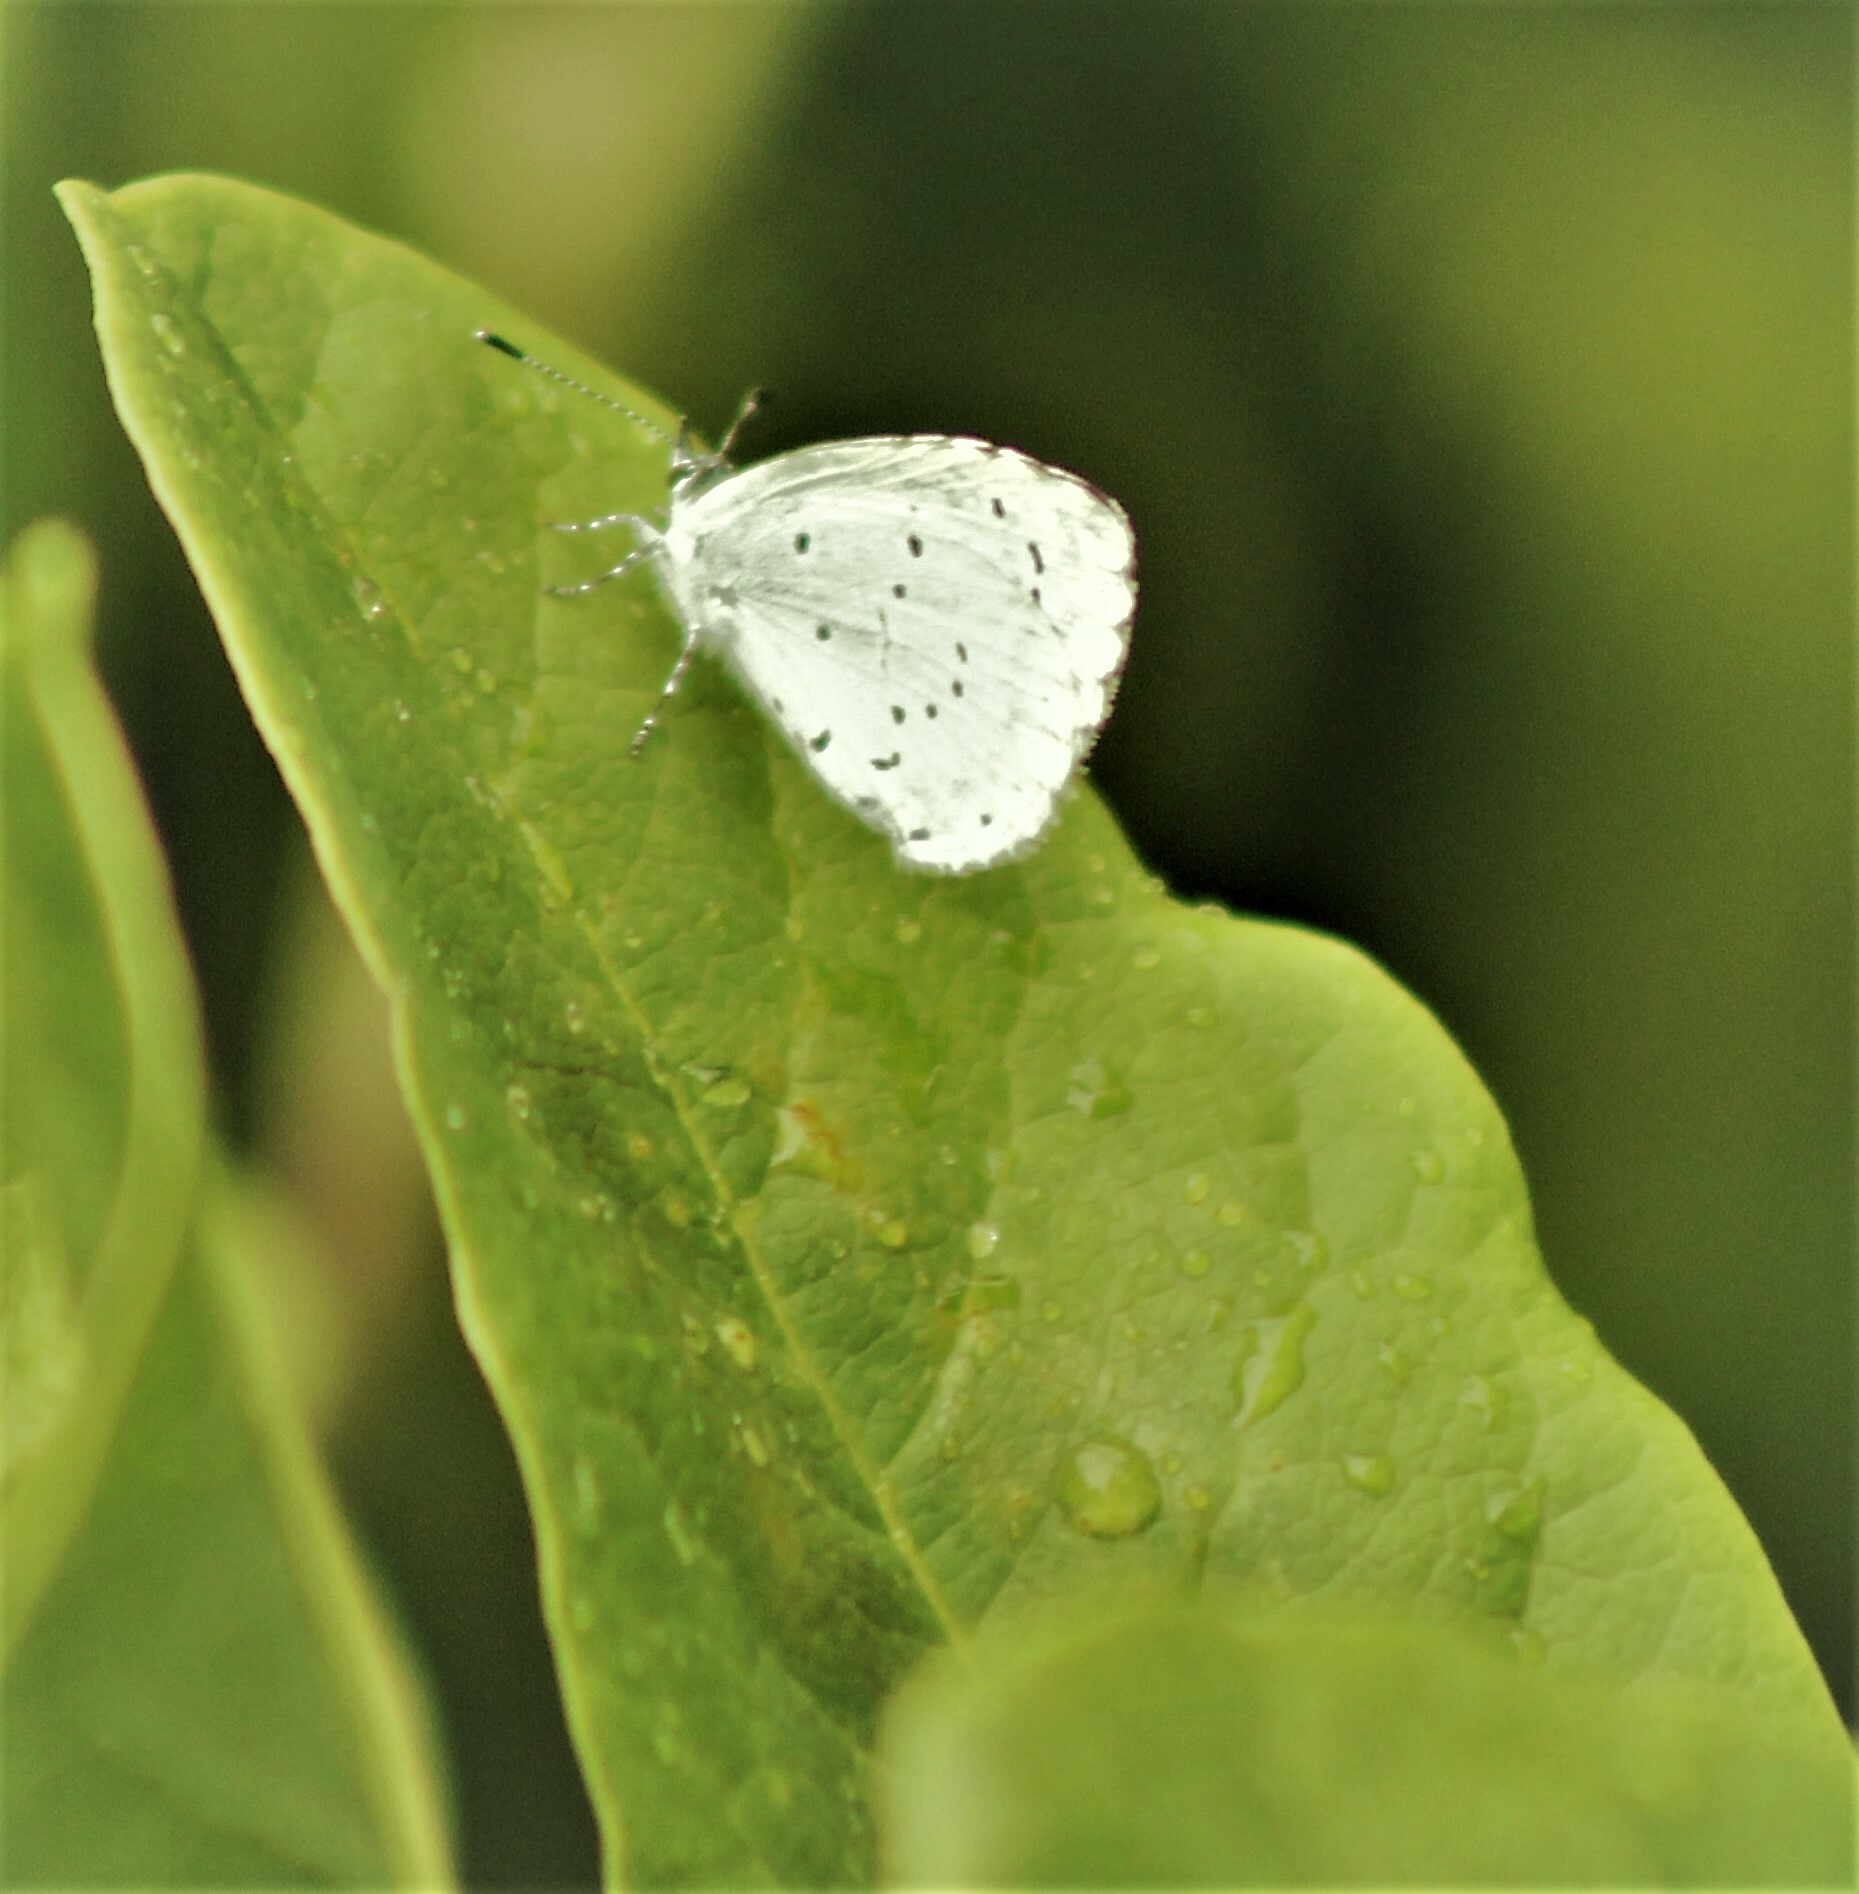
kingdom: Animalia
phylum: Arthropoda
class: Insecta
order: Lepidoptera
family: Lycaenidae
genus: Celastrina
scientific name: Celastrina argiolus
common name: Holly blue
